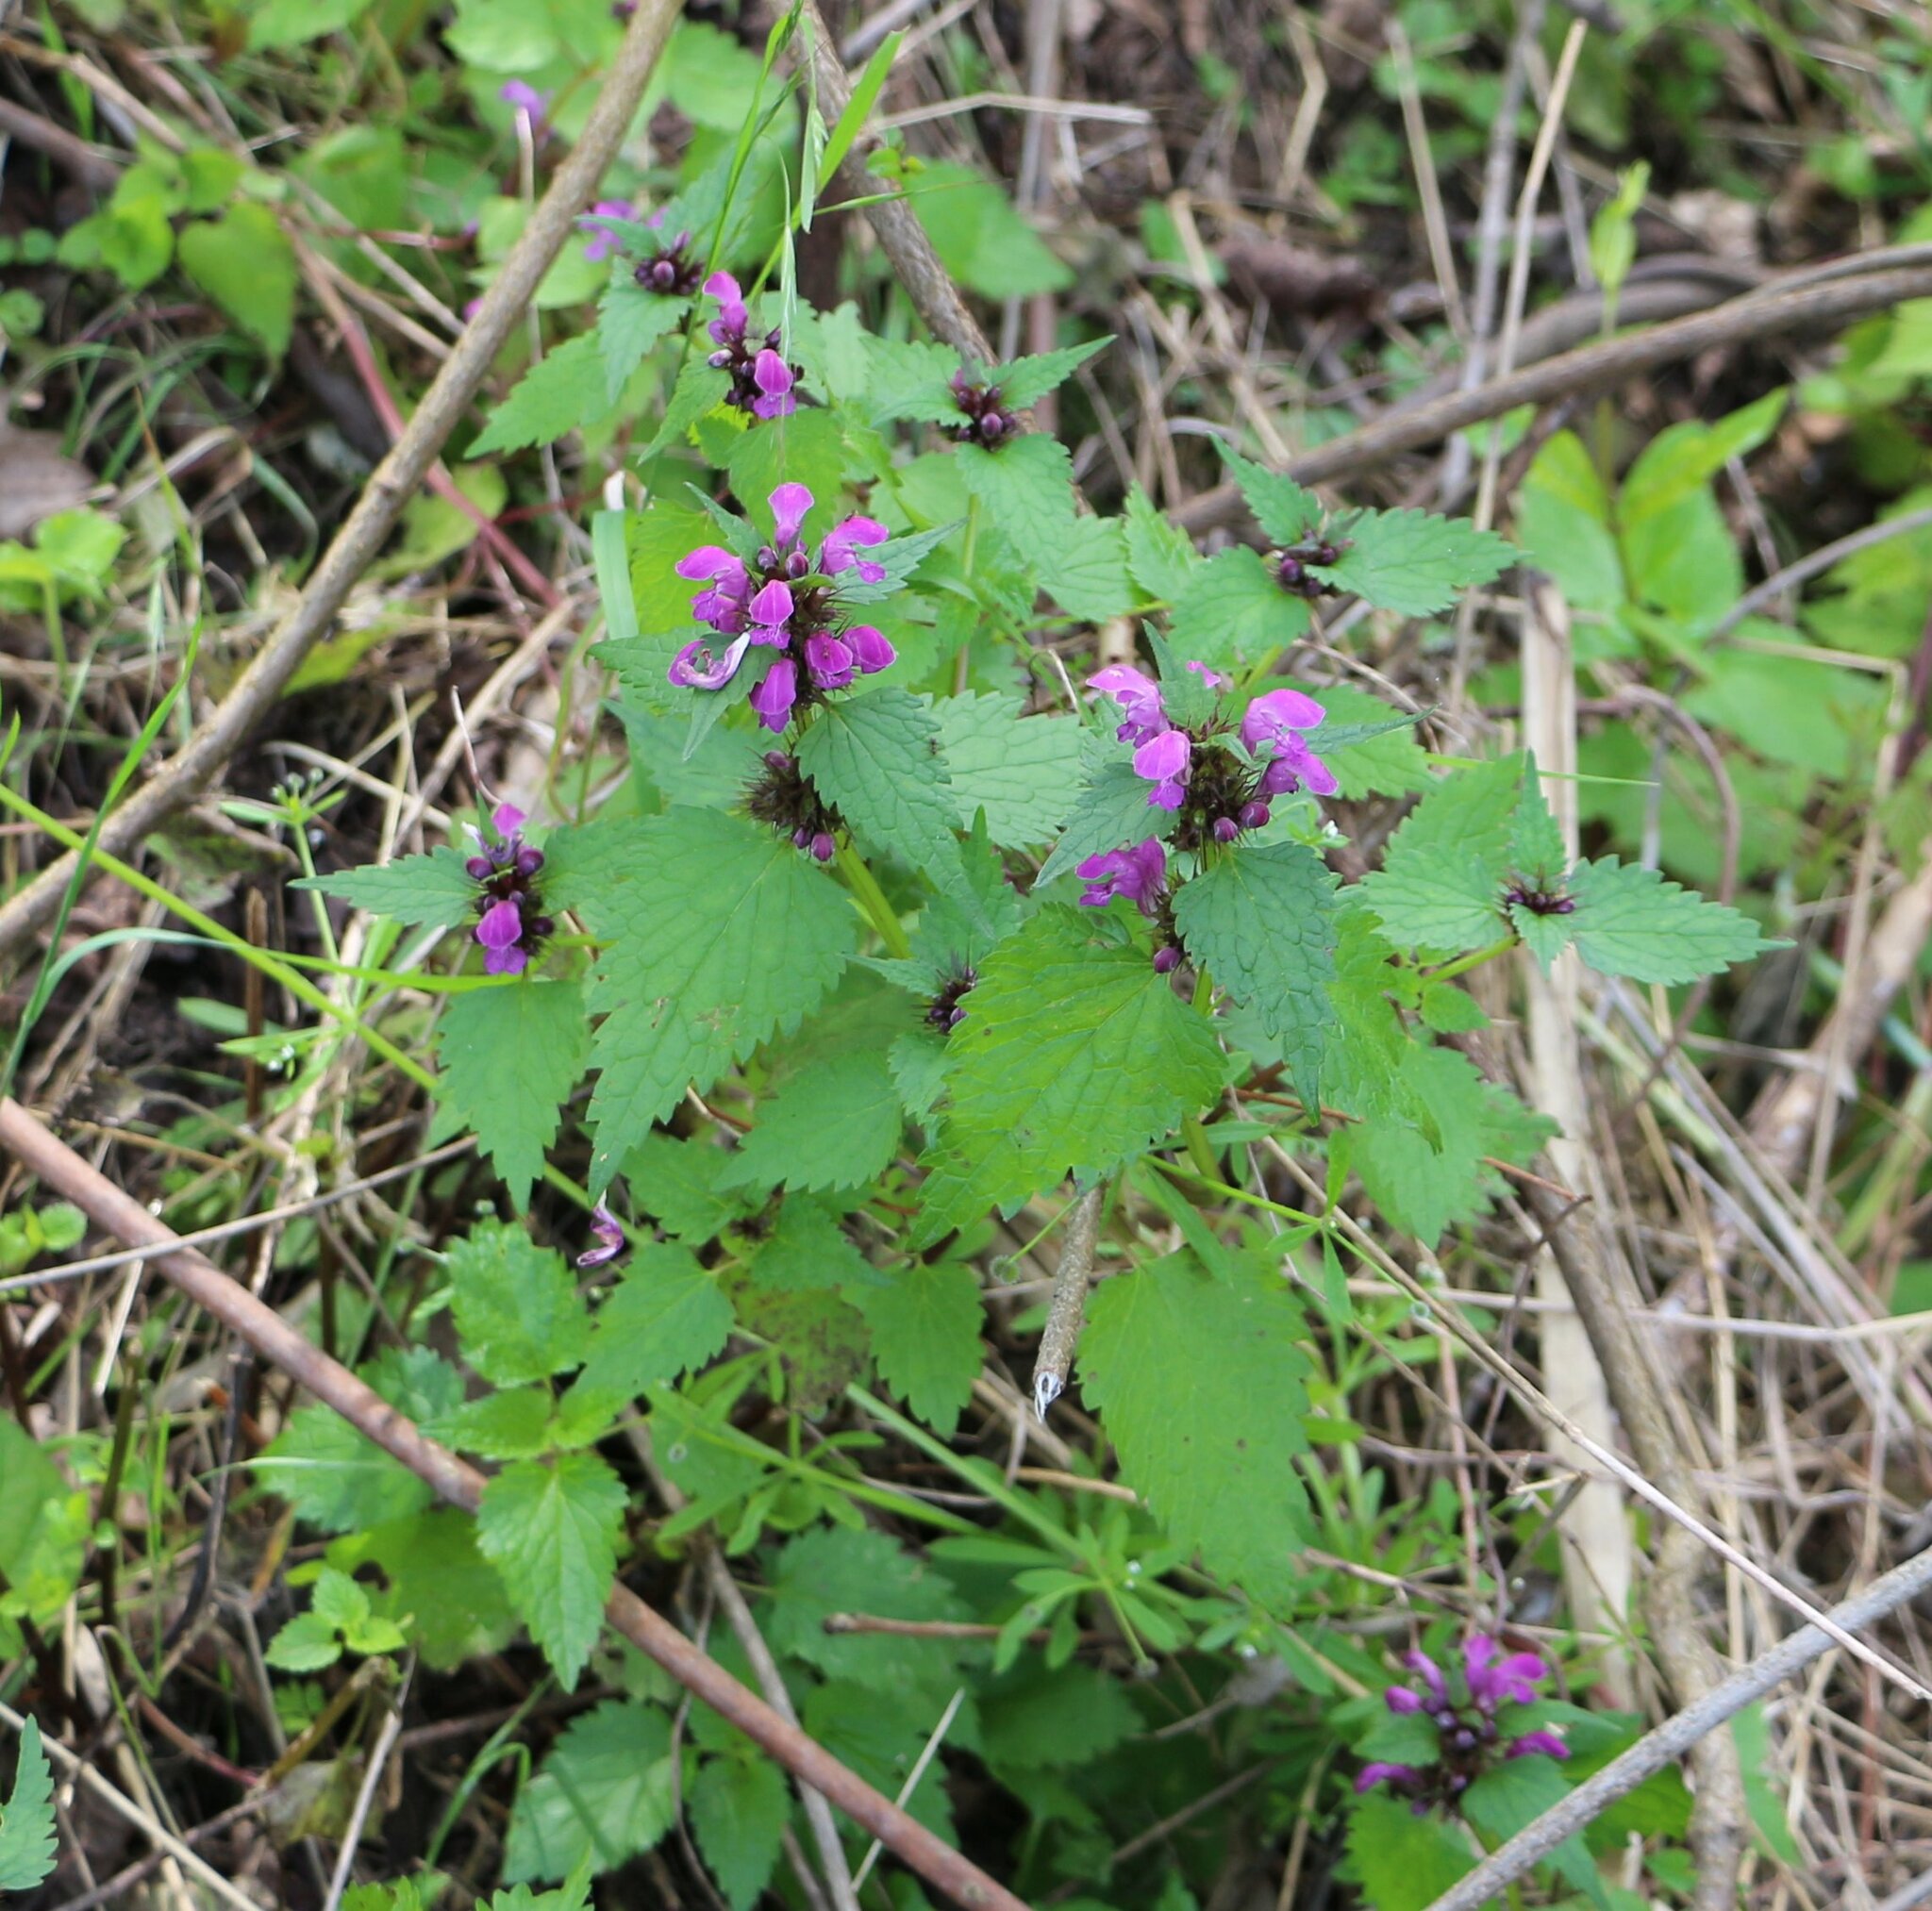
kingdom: Plantae
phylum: Tracheophyta
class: Magnoliopsida
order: Lamiales
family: Lamiaceae
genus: Lamium
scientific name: Lamium maculatum
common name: Spotted dead-nettle
